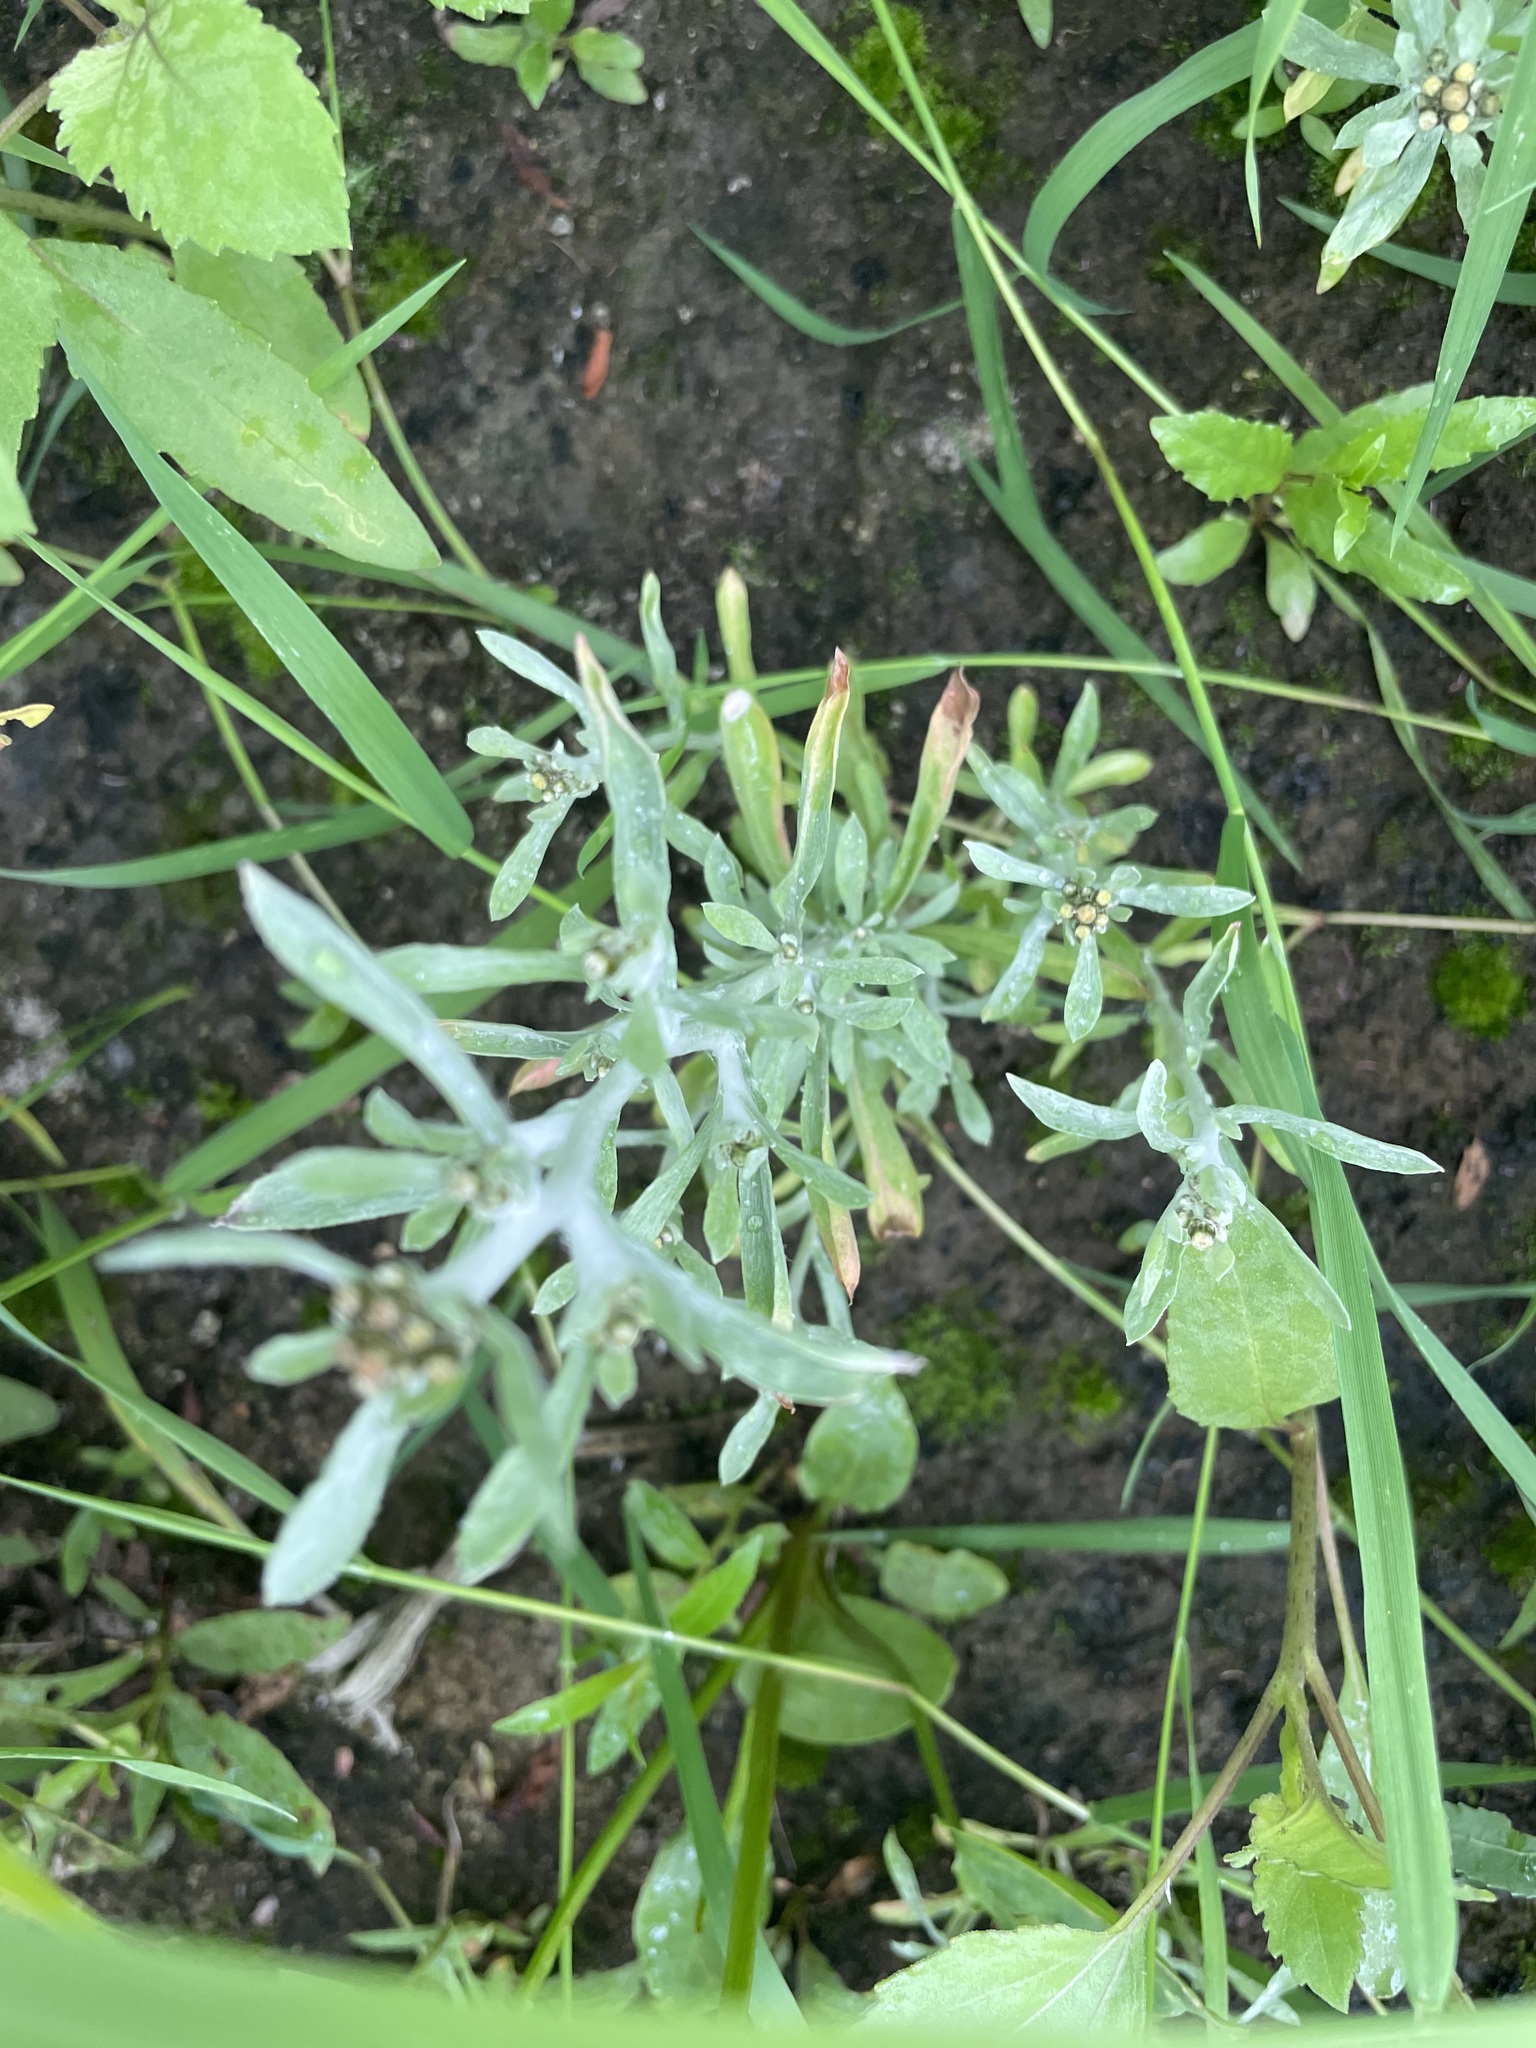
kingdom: Plantae
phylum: Tracheophyta
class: Magnoliopsida
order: Asterales
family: Asteraceae
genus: Gnaphalium
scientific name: Gnaphalium uliginosum
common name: Marsh cudweed
